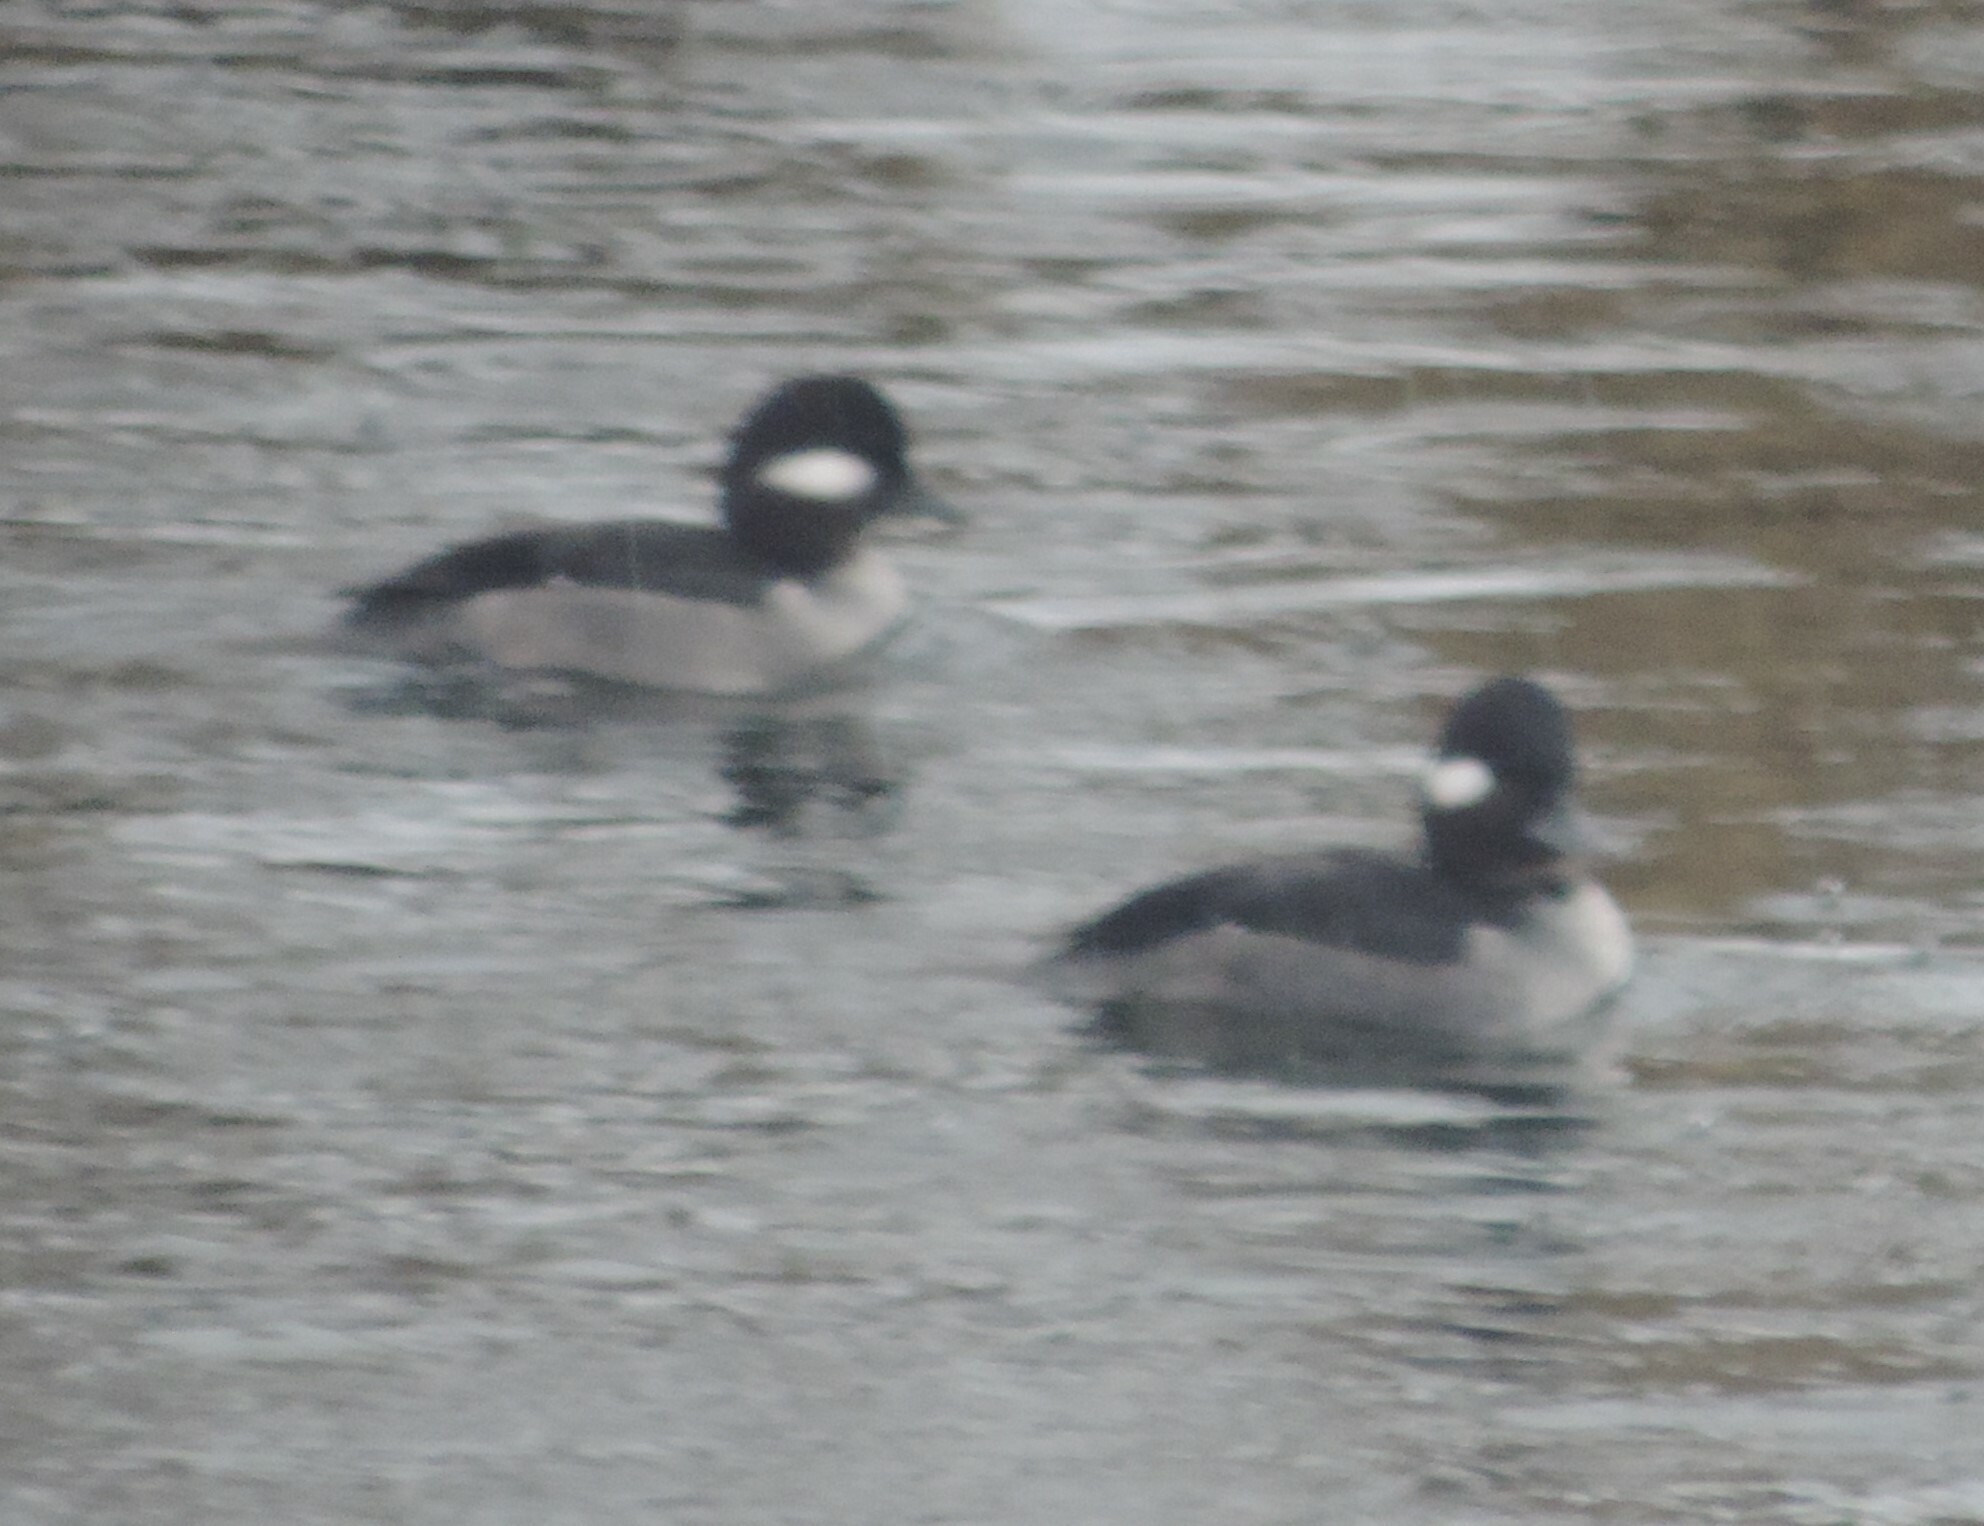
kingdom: Animalia
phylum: Chordata
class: Aves
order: Anseriformes
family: Anatidae
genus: Bucephala
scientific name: Bucephala albeola
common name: Bufflehead
